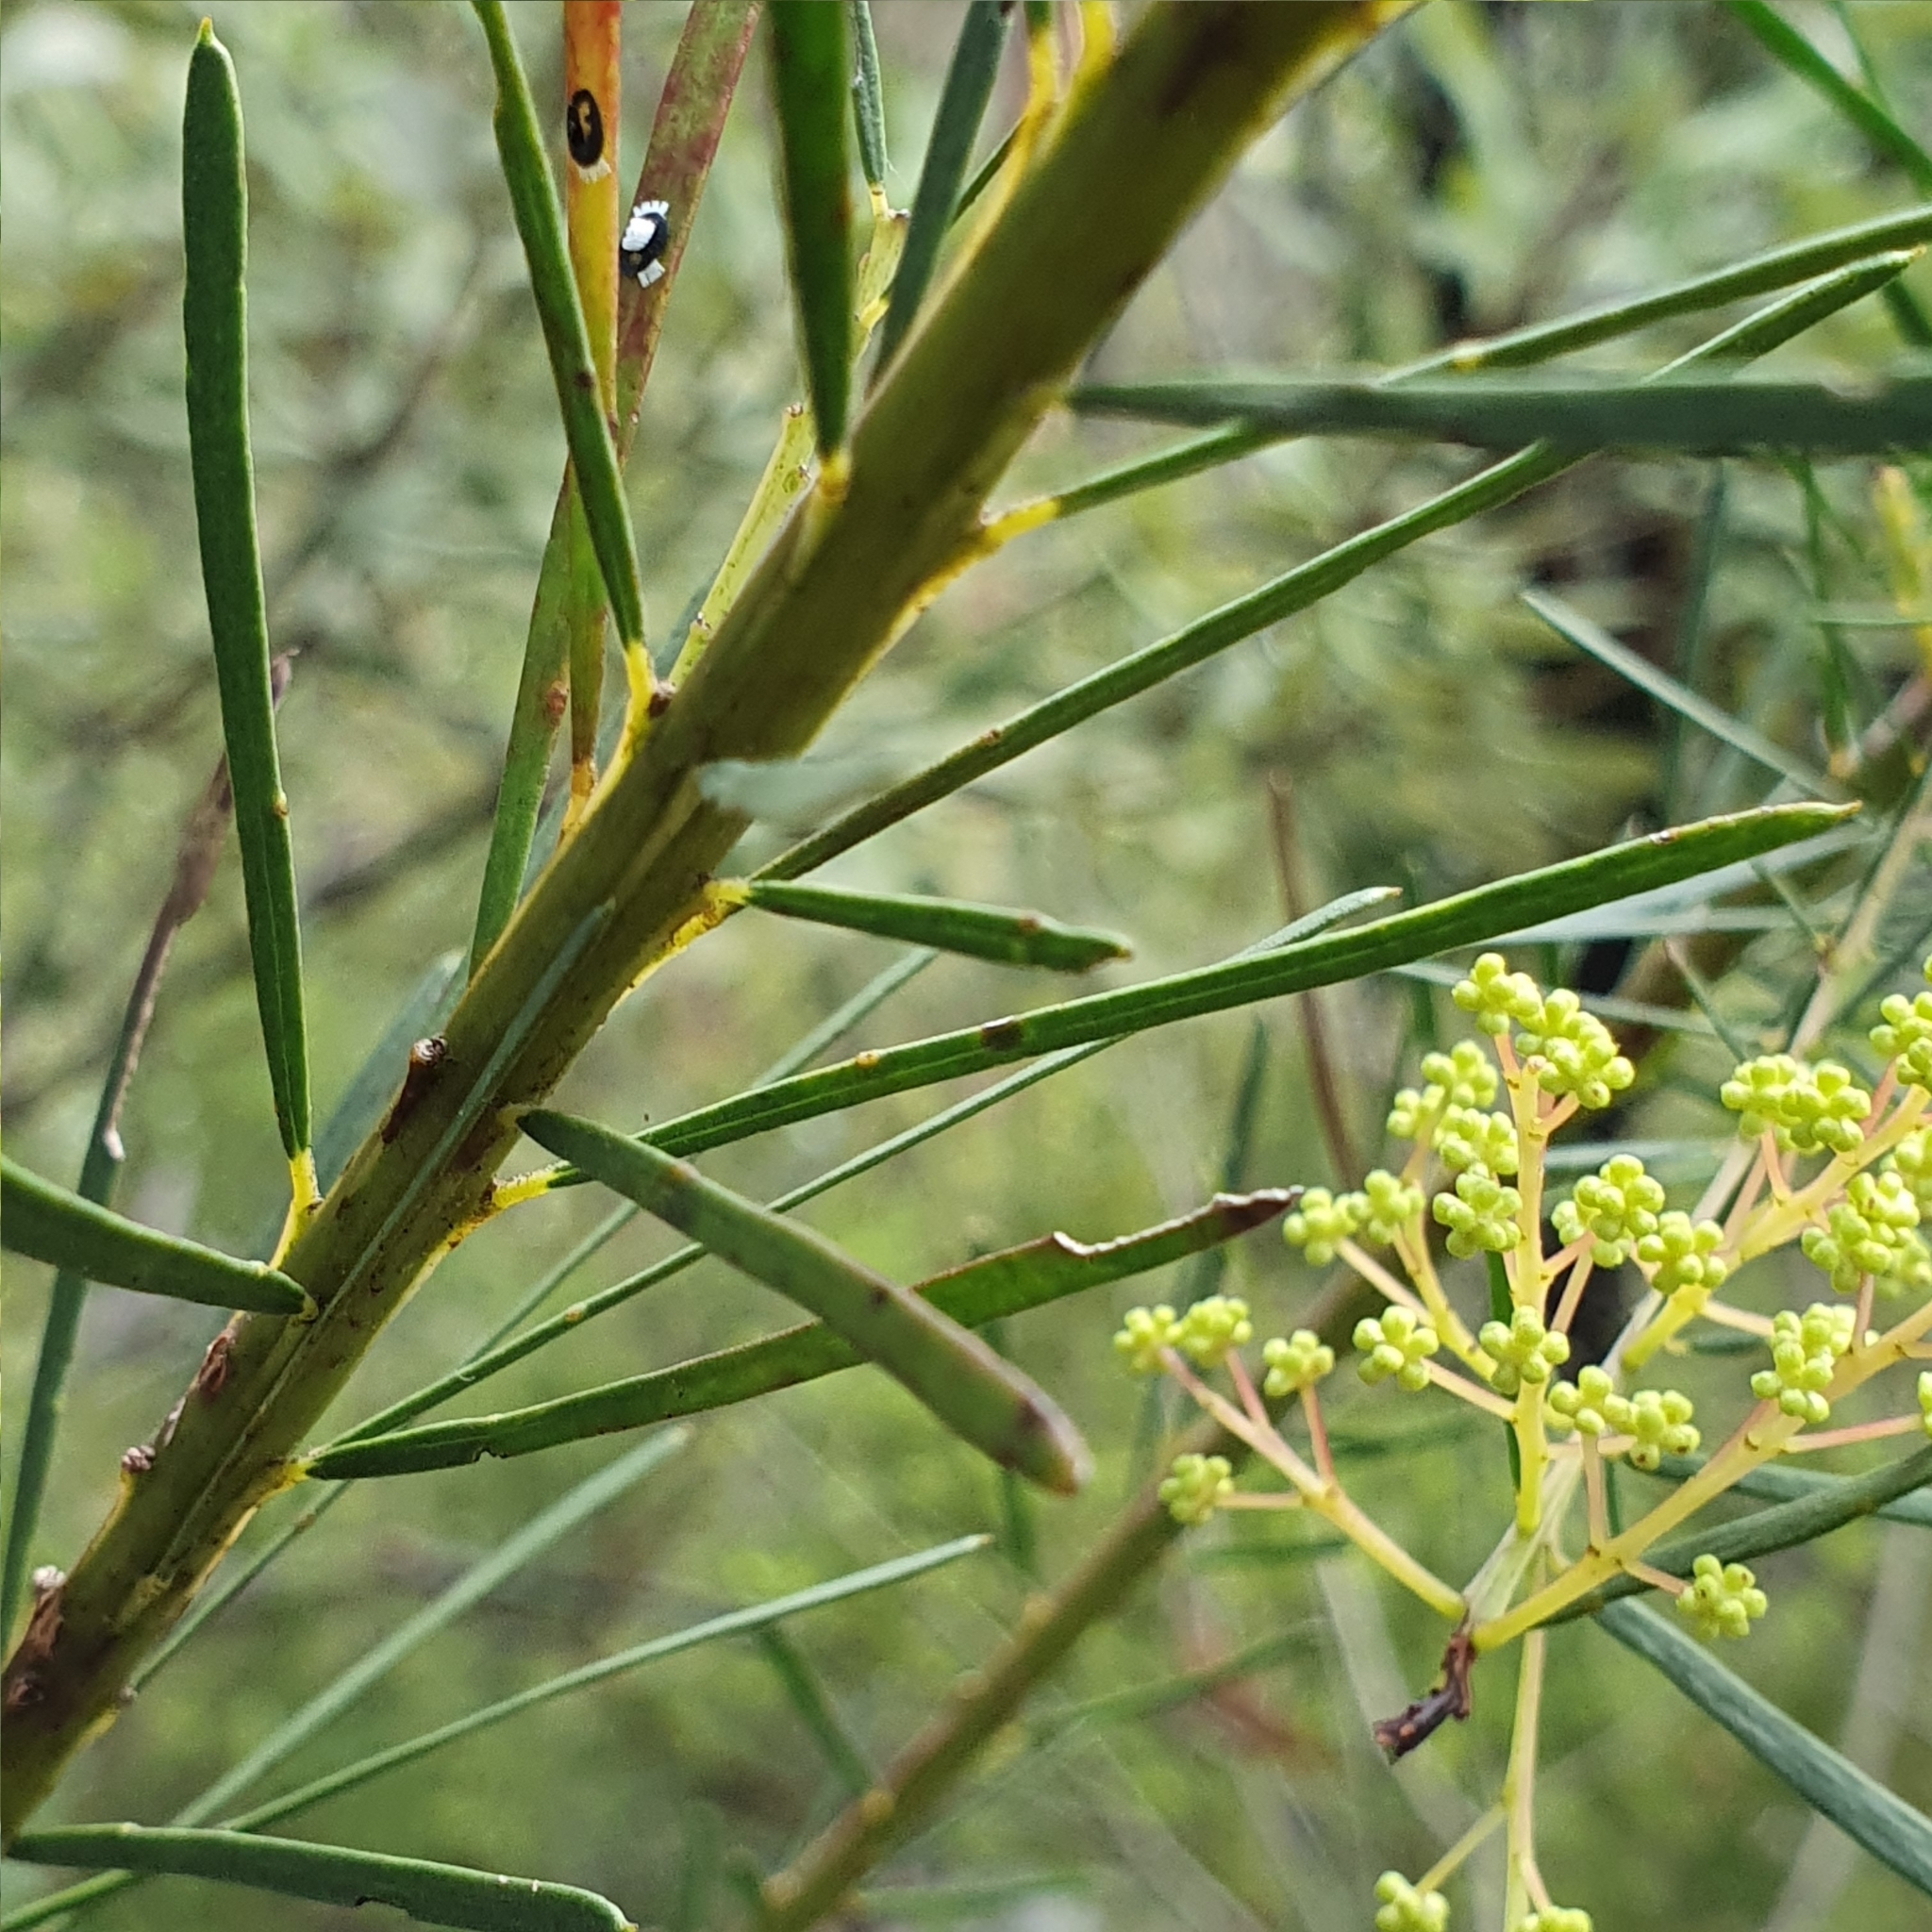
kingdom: Plantae
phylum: Tracheophyta
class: Magnoliopsida
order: Fabales
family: Fabaceae
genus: Acacia
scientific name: Acacia linifolia
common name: White wattle
